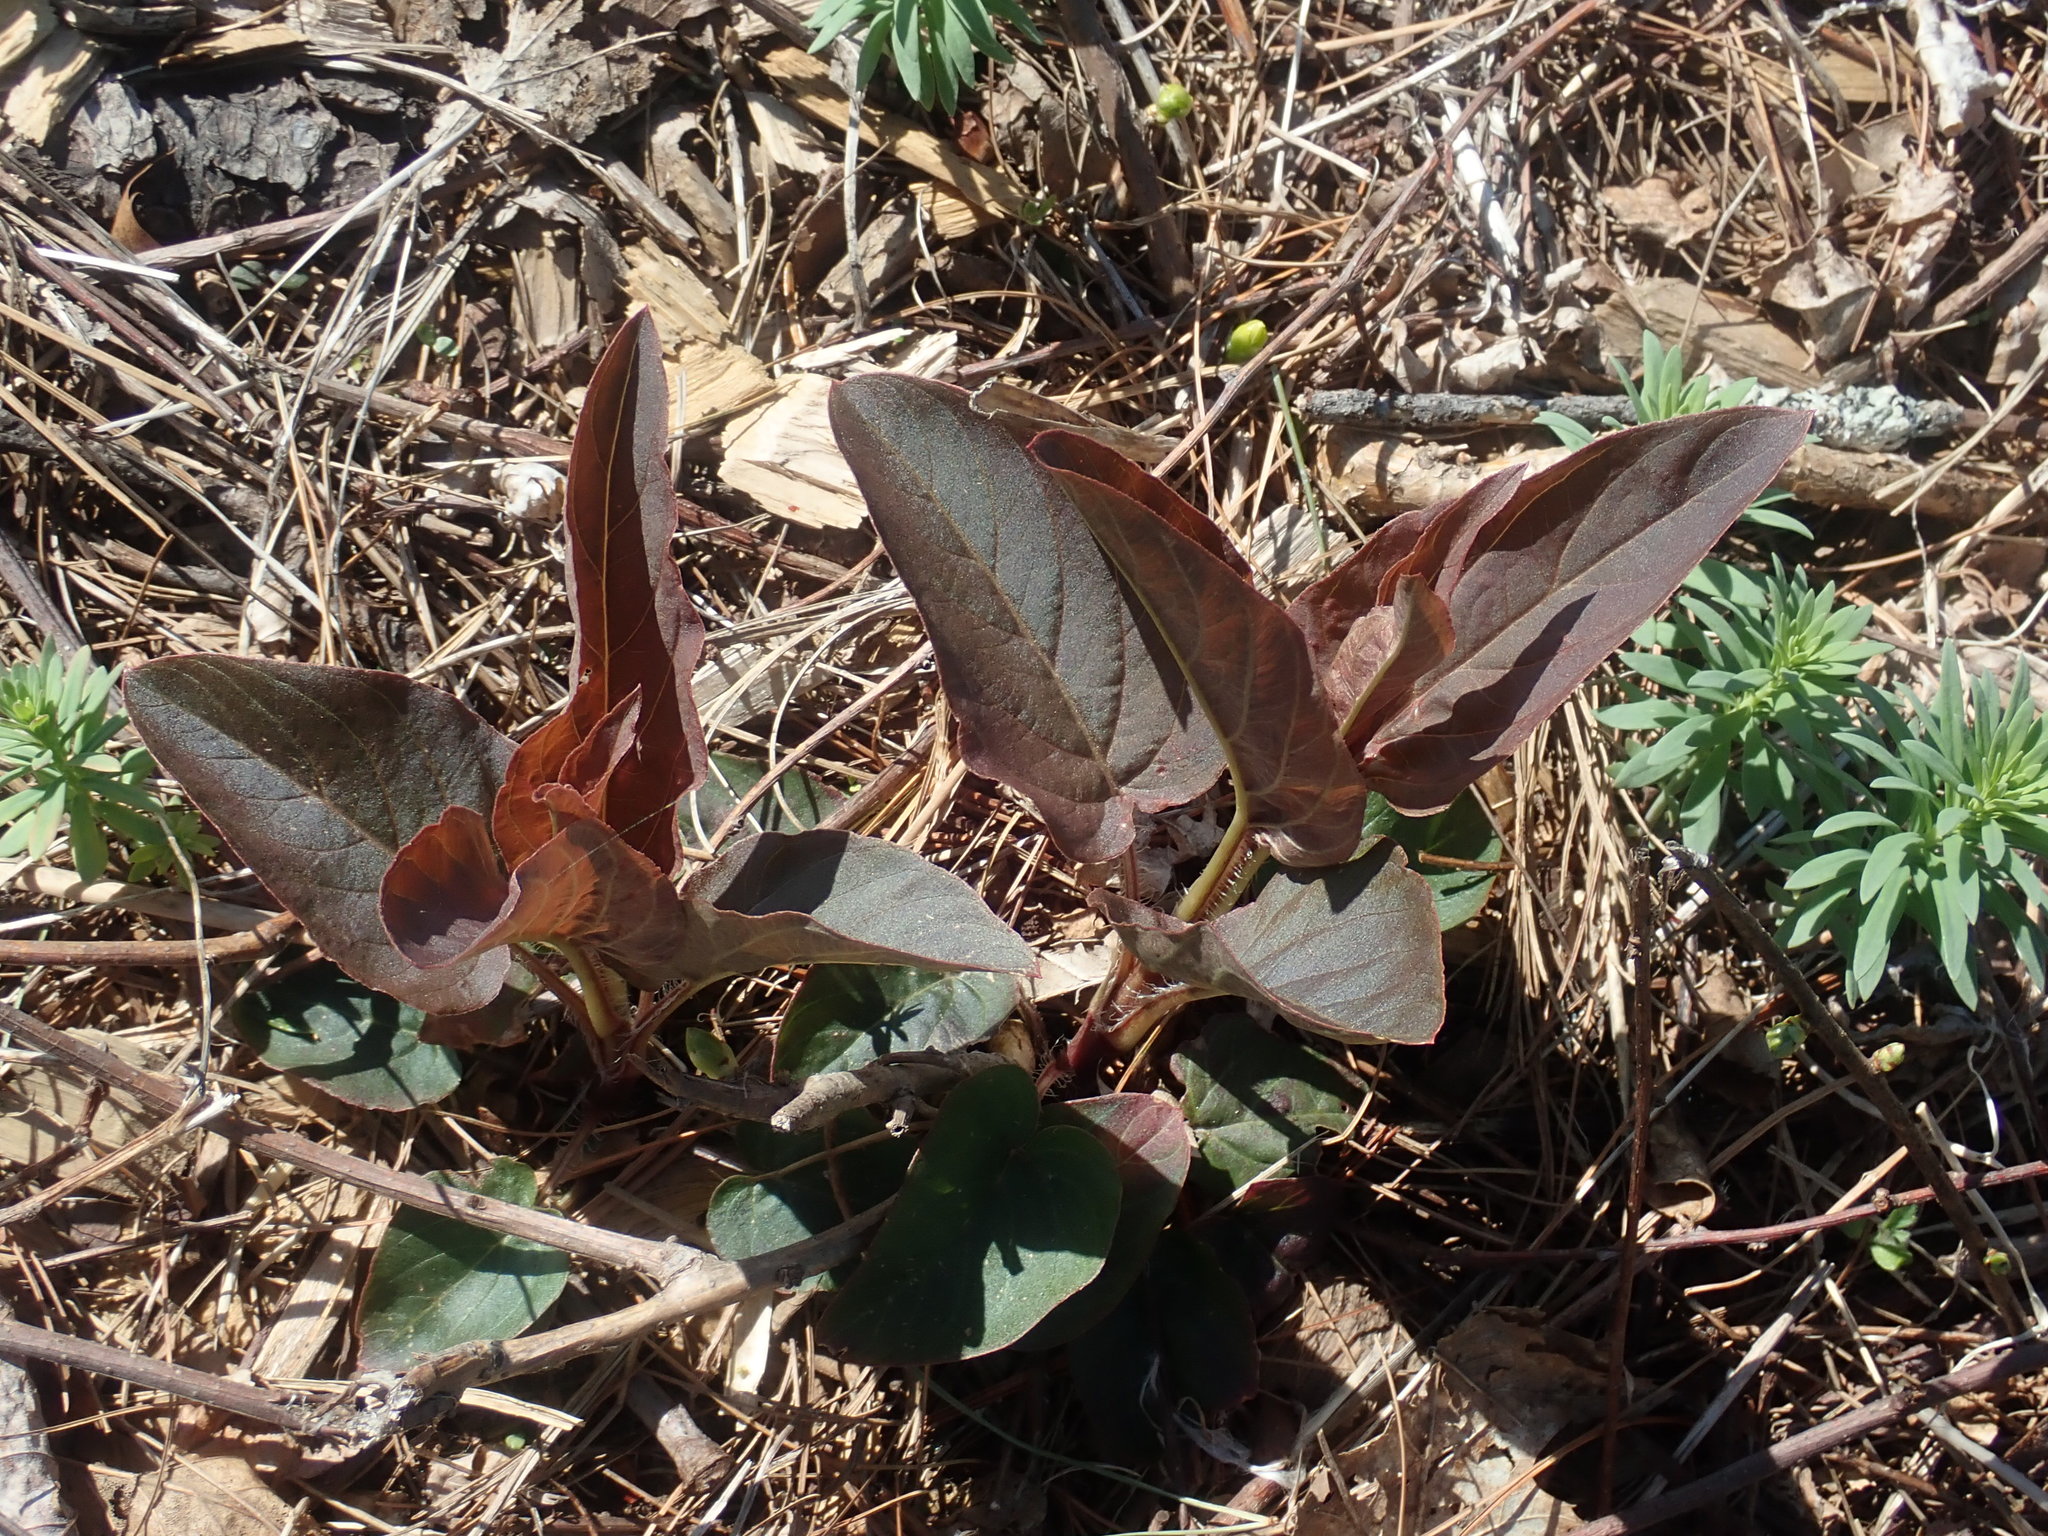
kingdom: Plantae
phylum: Tracheophyta
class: Magnoliopsida
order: Ericales
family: Primulaceae
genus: Lysimachia
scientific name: Lysimachia ciliata
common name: Fringed loosestrife
